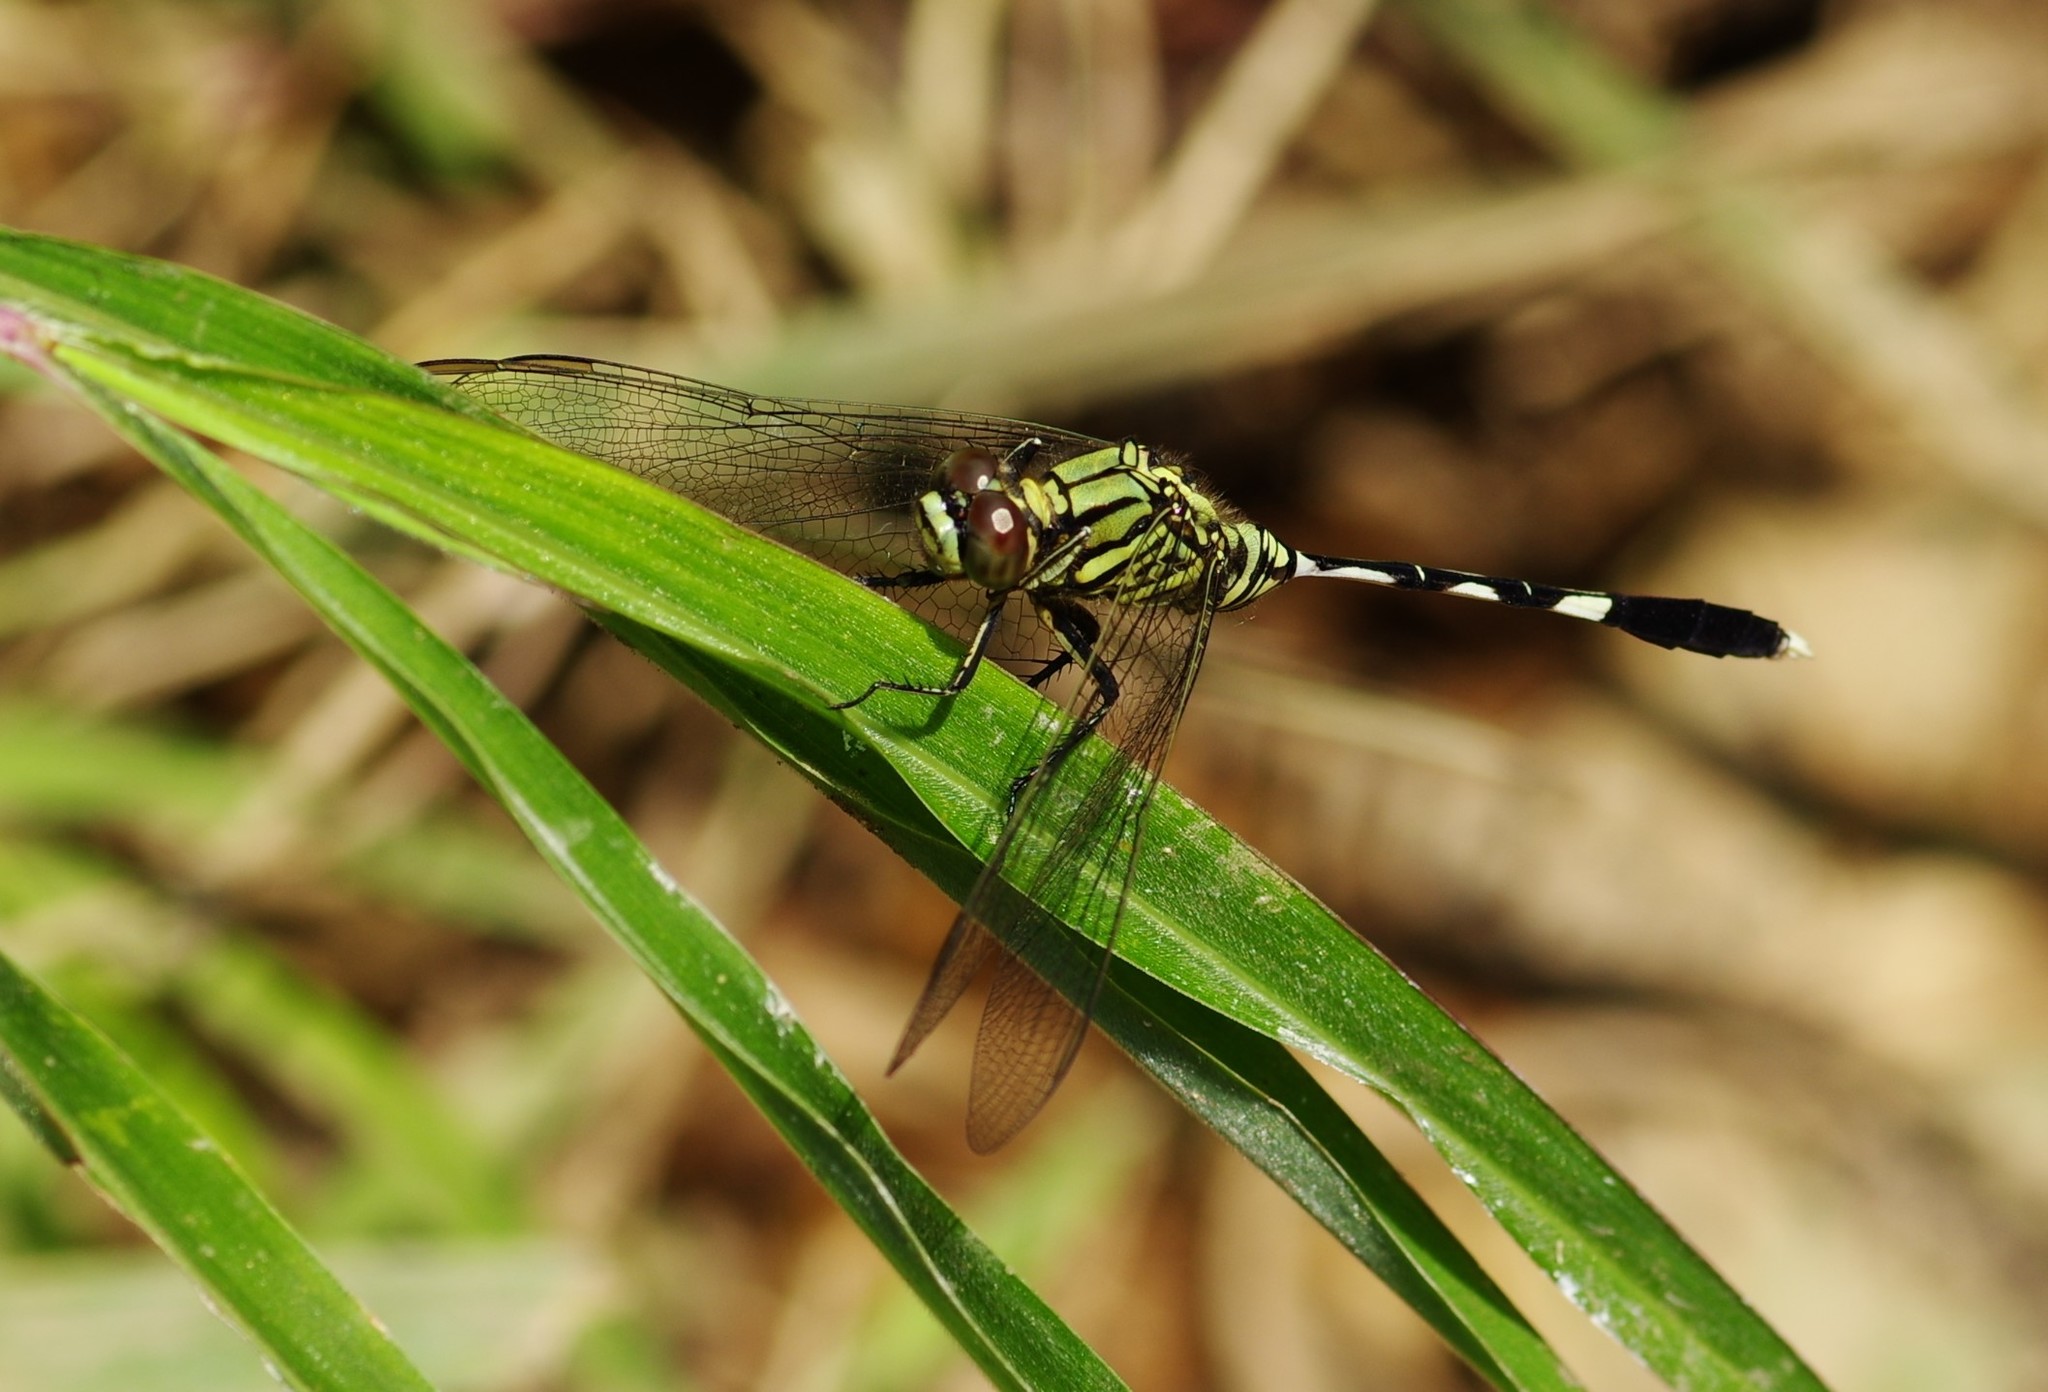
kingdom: Animalia
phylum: Arthropoda
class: Insecta
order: Odonata
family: Libellulidae
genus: Orthetrum
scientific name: Orthetrum sabina
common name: Slender skimmer
